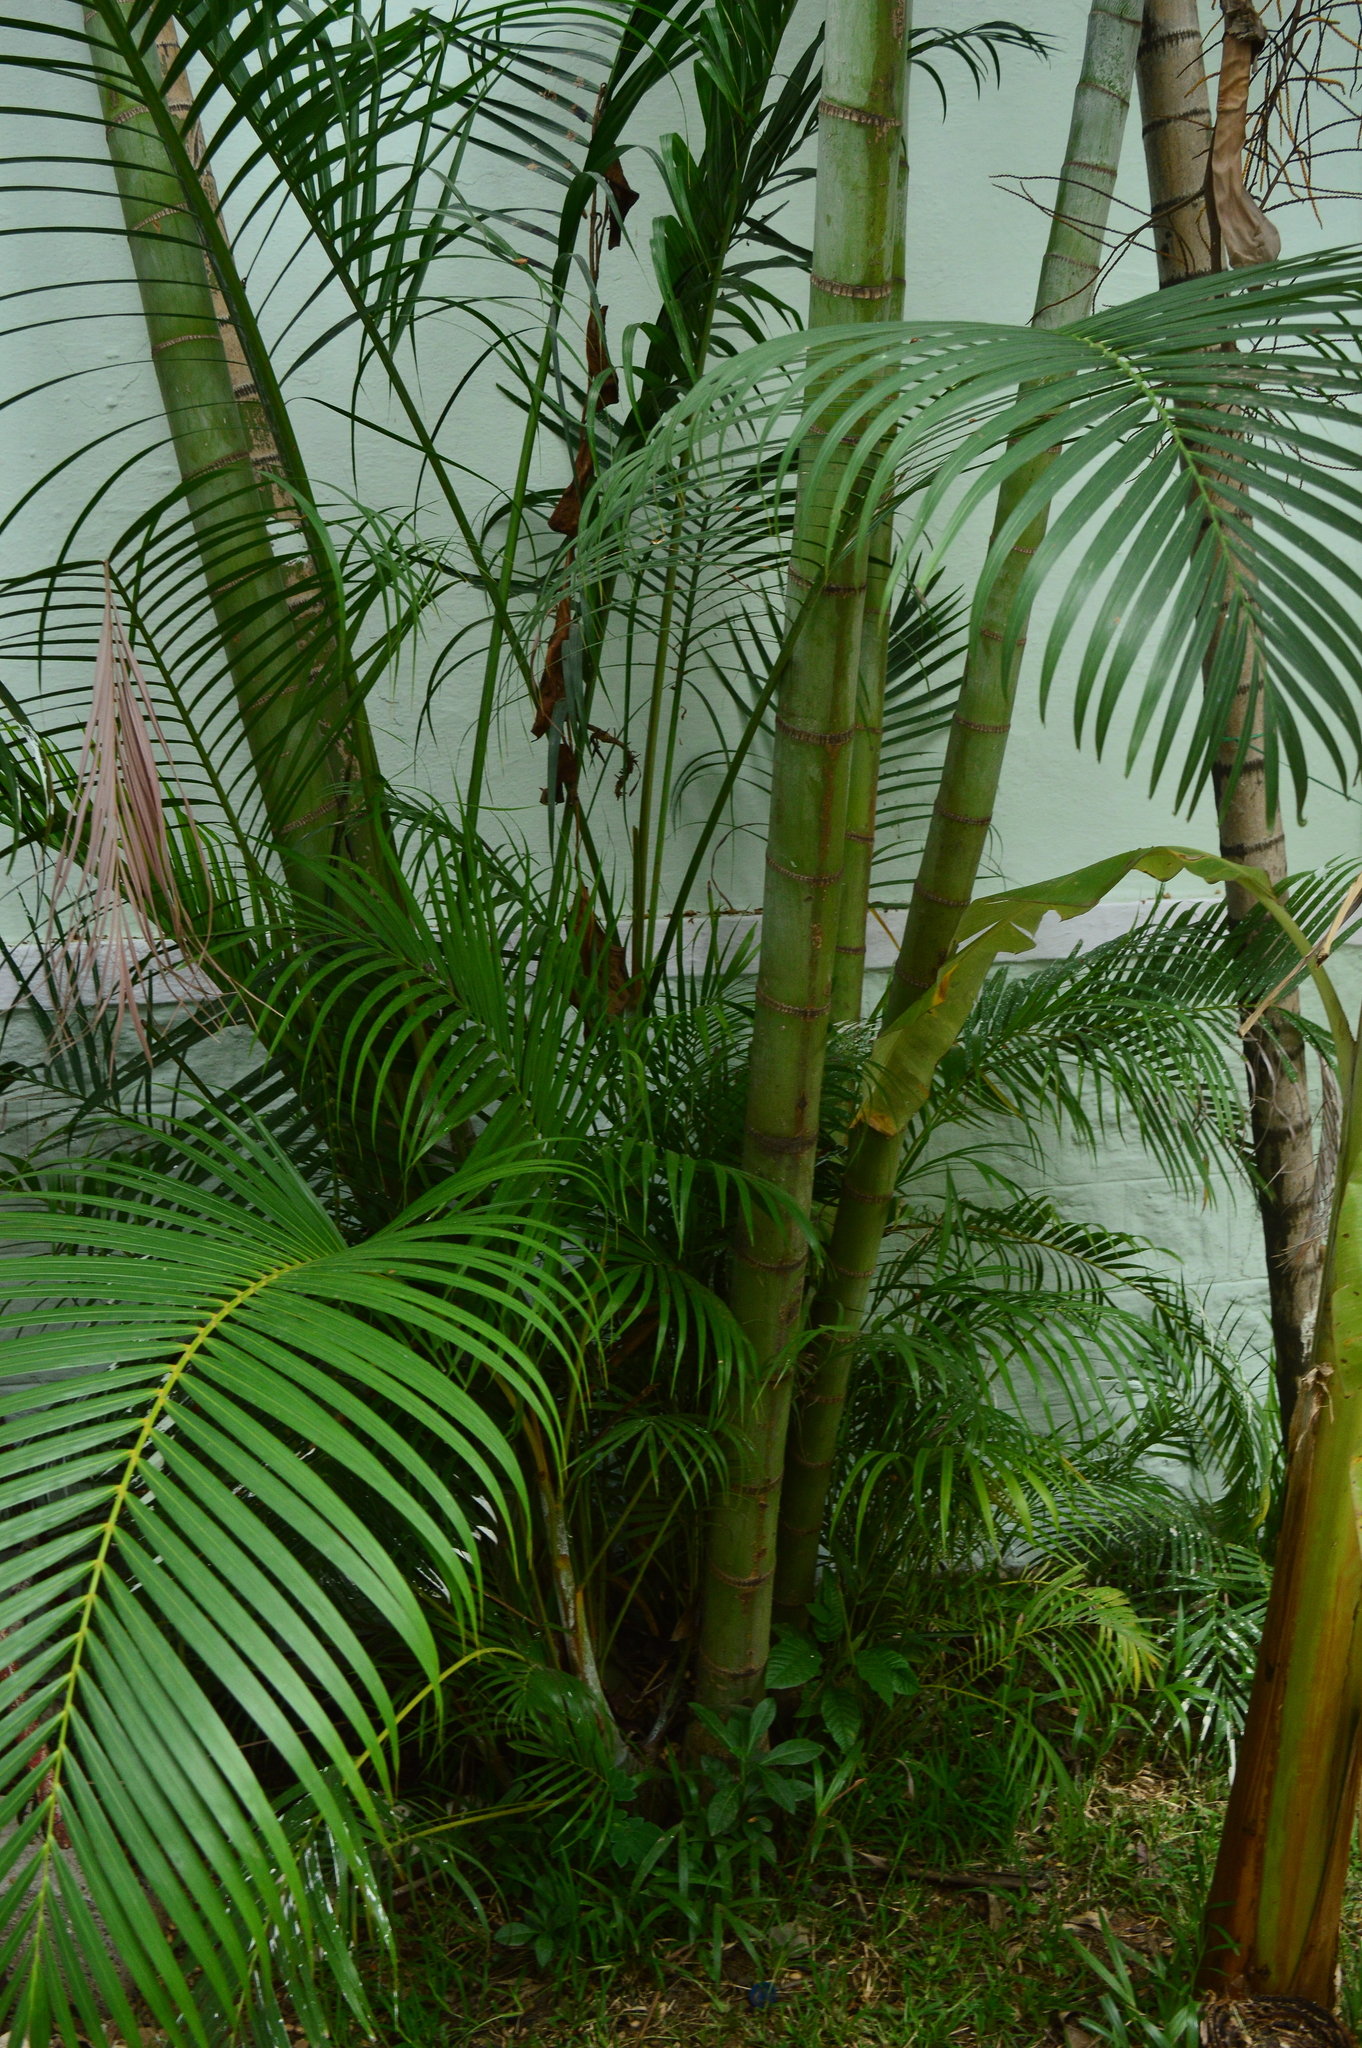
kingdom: Plantae
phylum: Tracheophyta
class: Liliopsida
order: Arecales
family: Arecaceae
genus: Dypsis
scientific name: Dypsis lutescens
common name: Yellow butterfly palm
